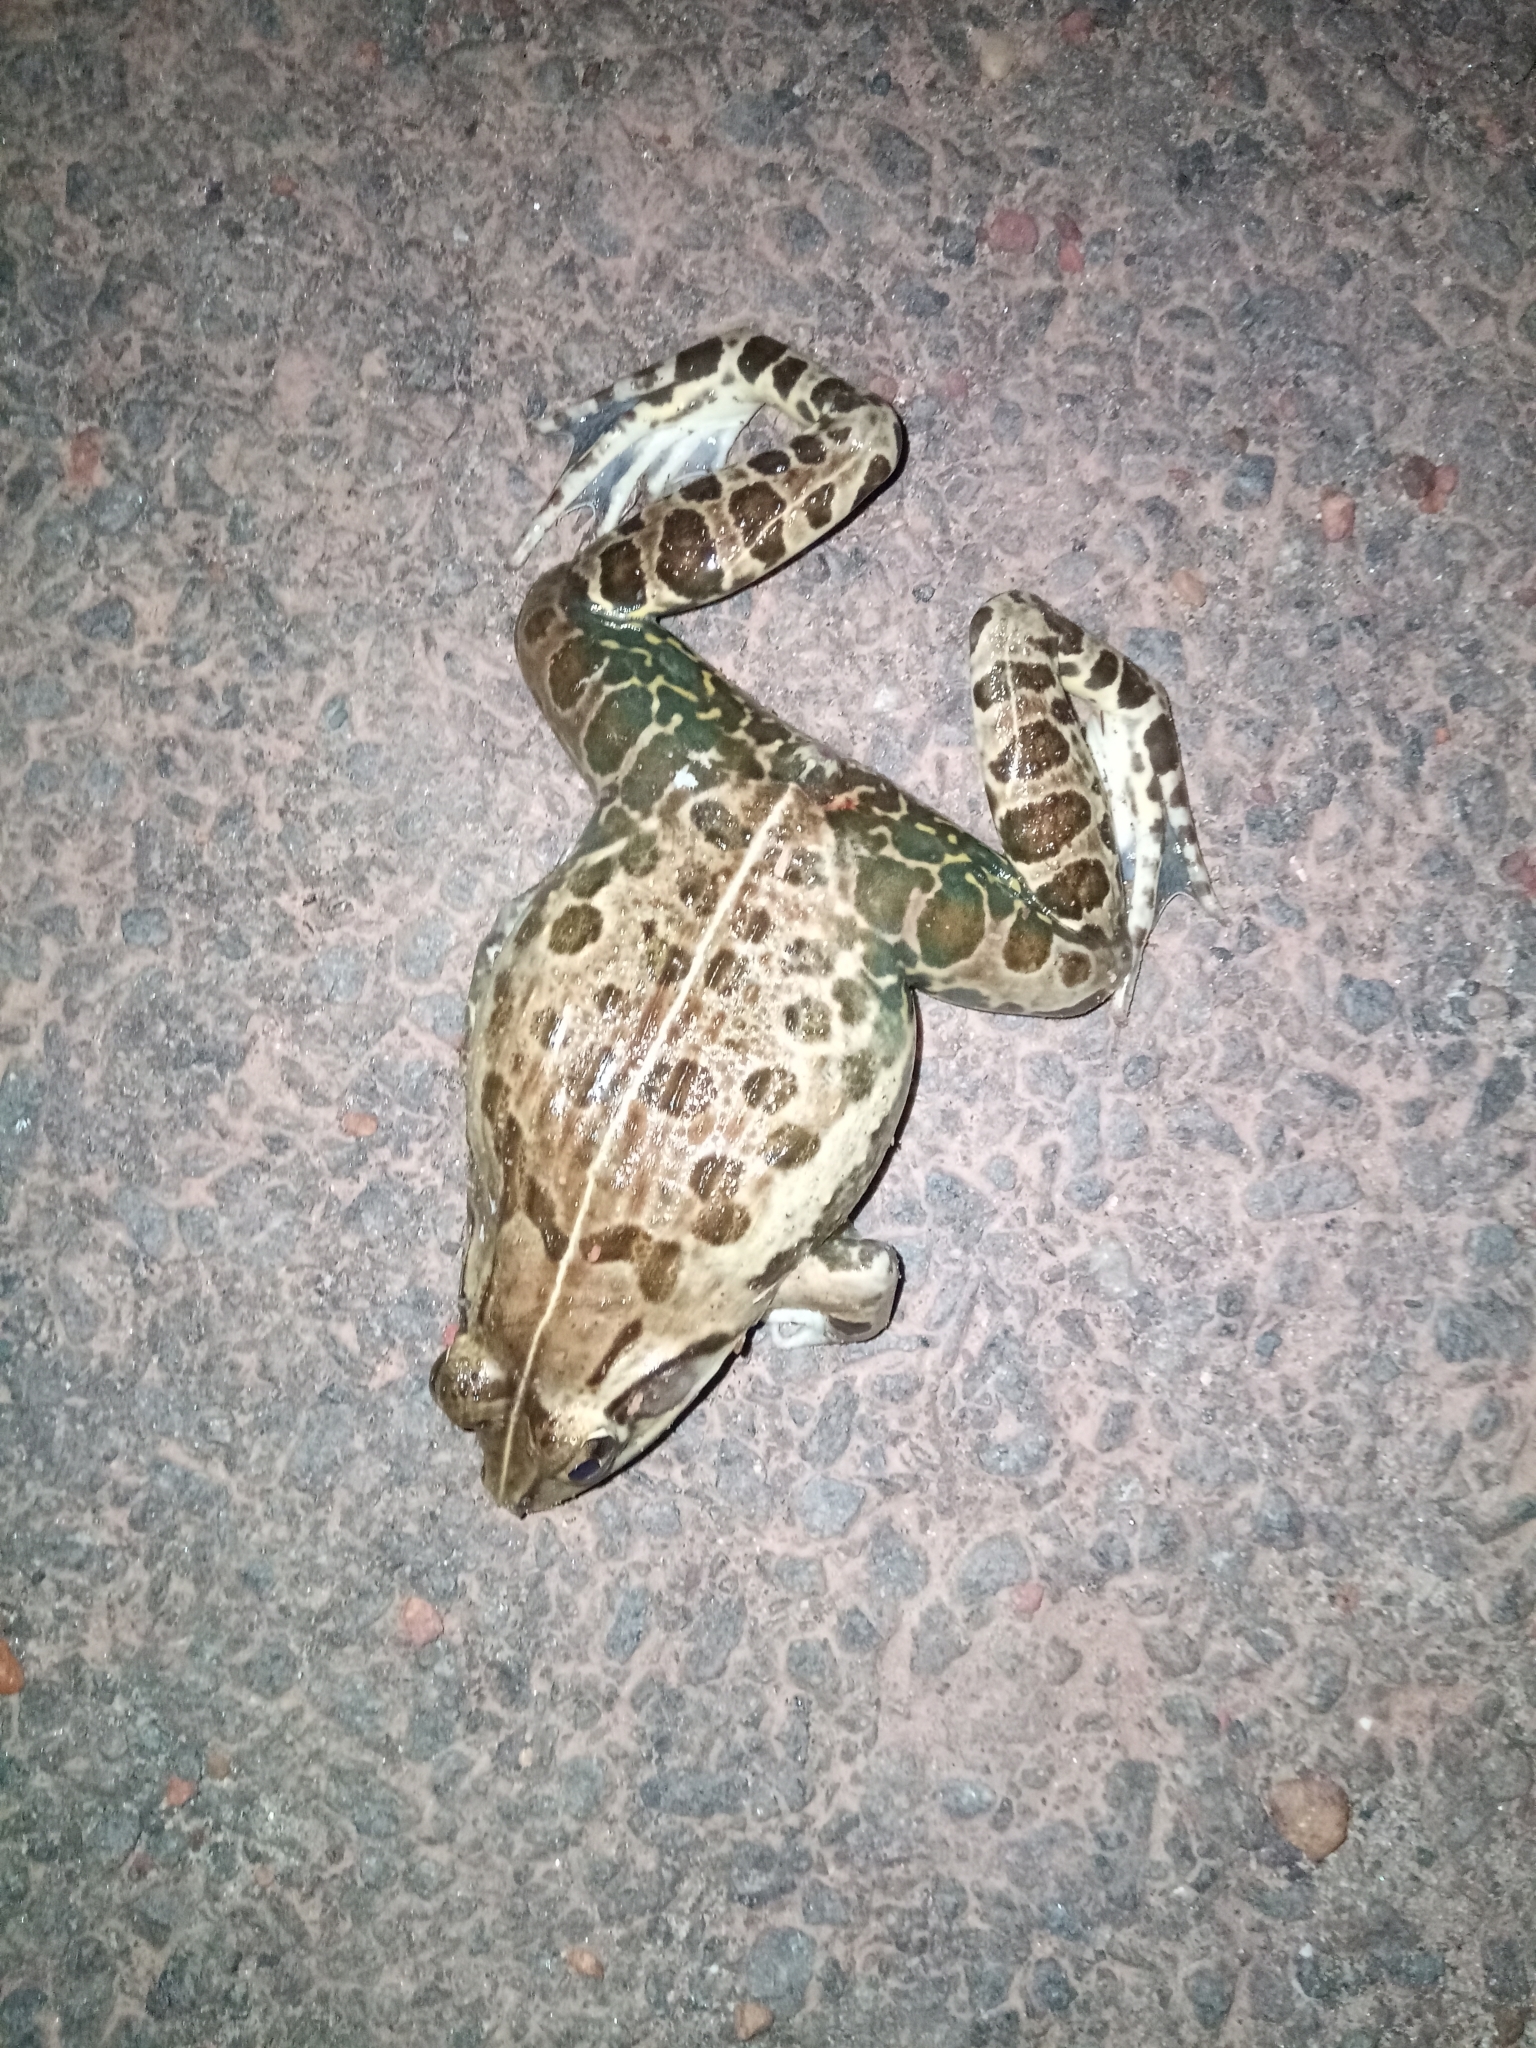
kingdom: Animalia
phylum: Chordata
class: Amphibia
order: Anura
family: Dicroglossidae
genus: Hoplobatrachus
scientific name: Hoplobatrachus tigerinus
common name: Indian bullfrog
